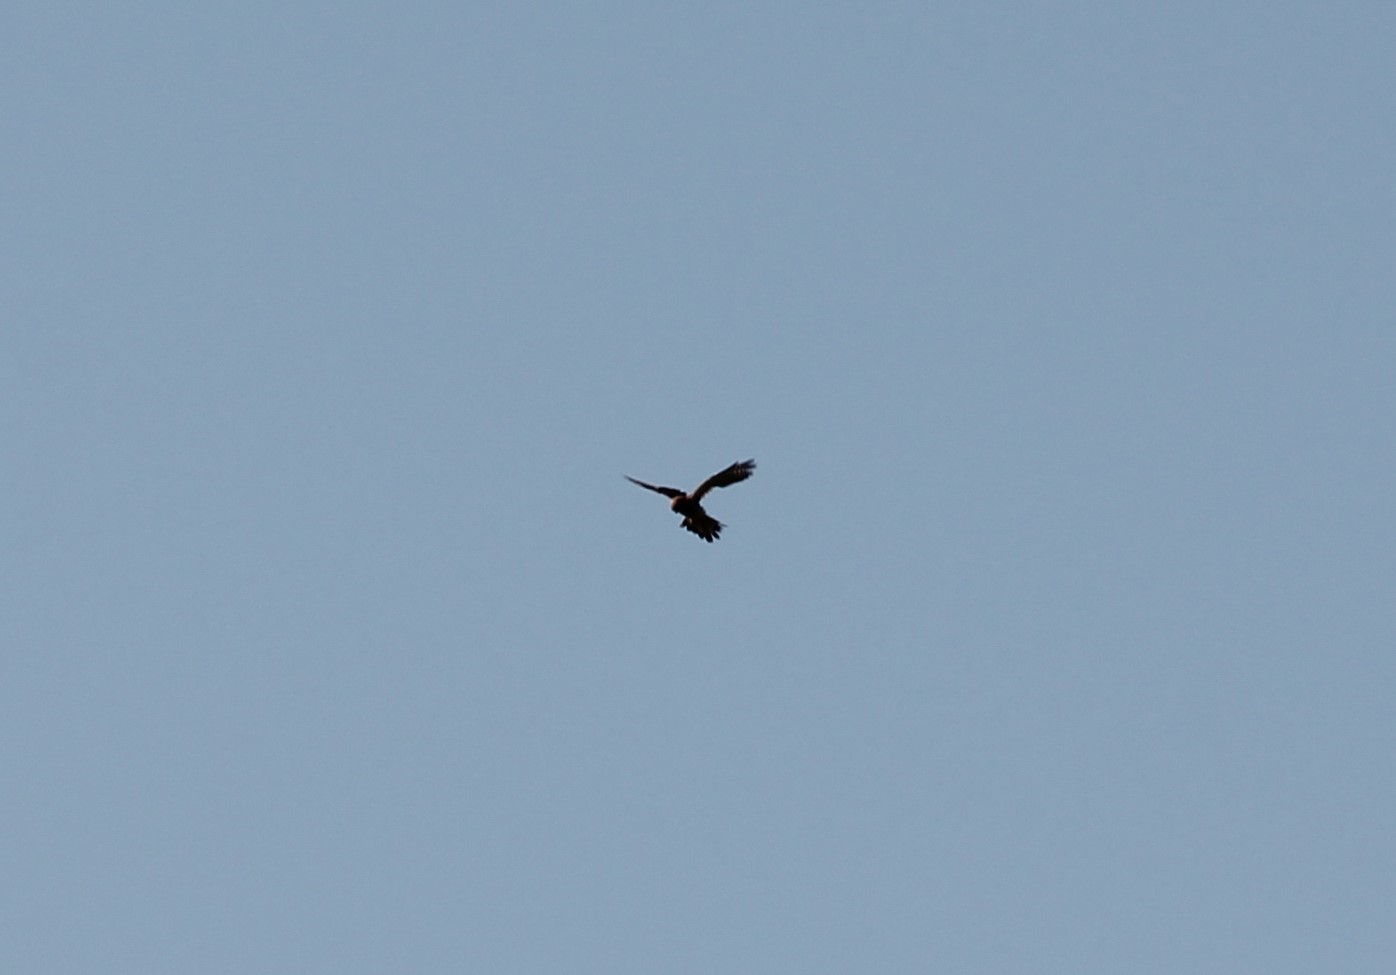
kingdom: Animalia
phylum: Chordata
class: Aves
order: Falconiformes
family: Falconidae
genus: Falco
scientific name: Falco tinnunculus
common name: Common kestrel
